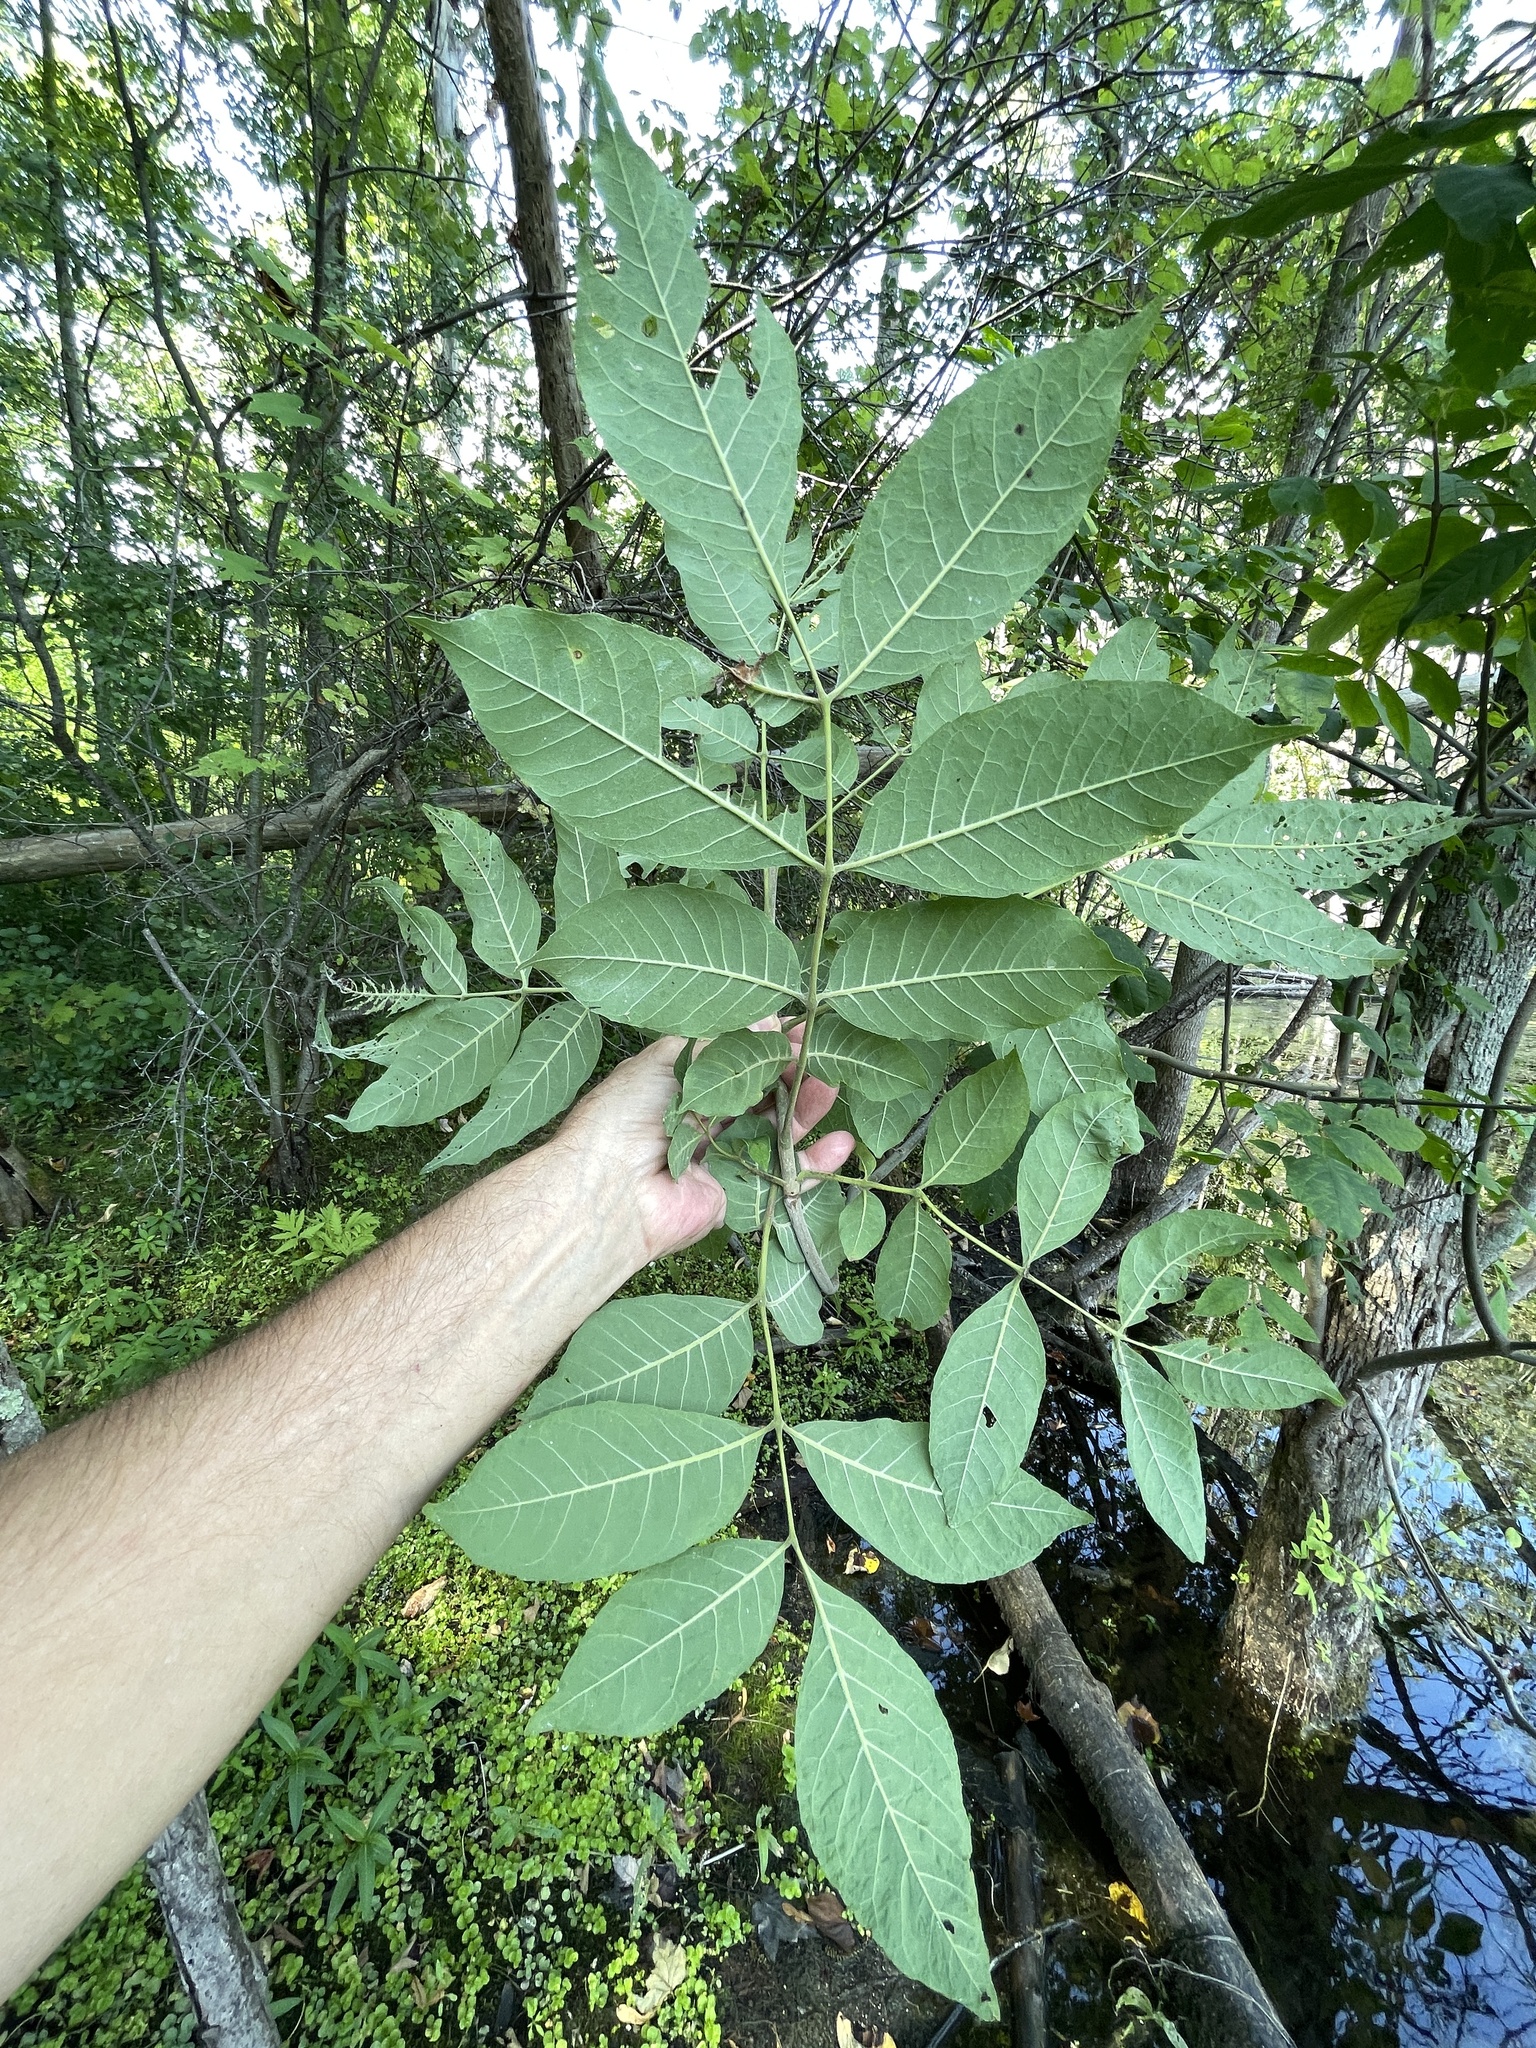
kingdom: Plantae
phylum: Tracheophyta
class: Magnoliopsida
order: Lamiales
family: Oleaceae
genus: Fraxinus
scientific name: Fraxinus profunda
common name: Pumpkin ash
